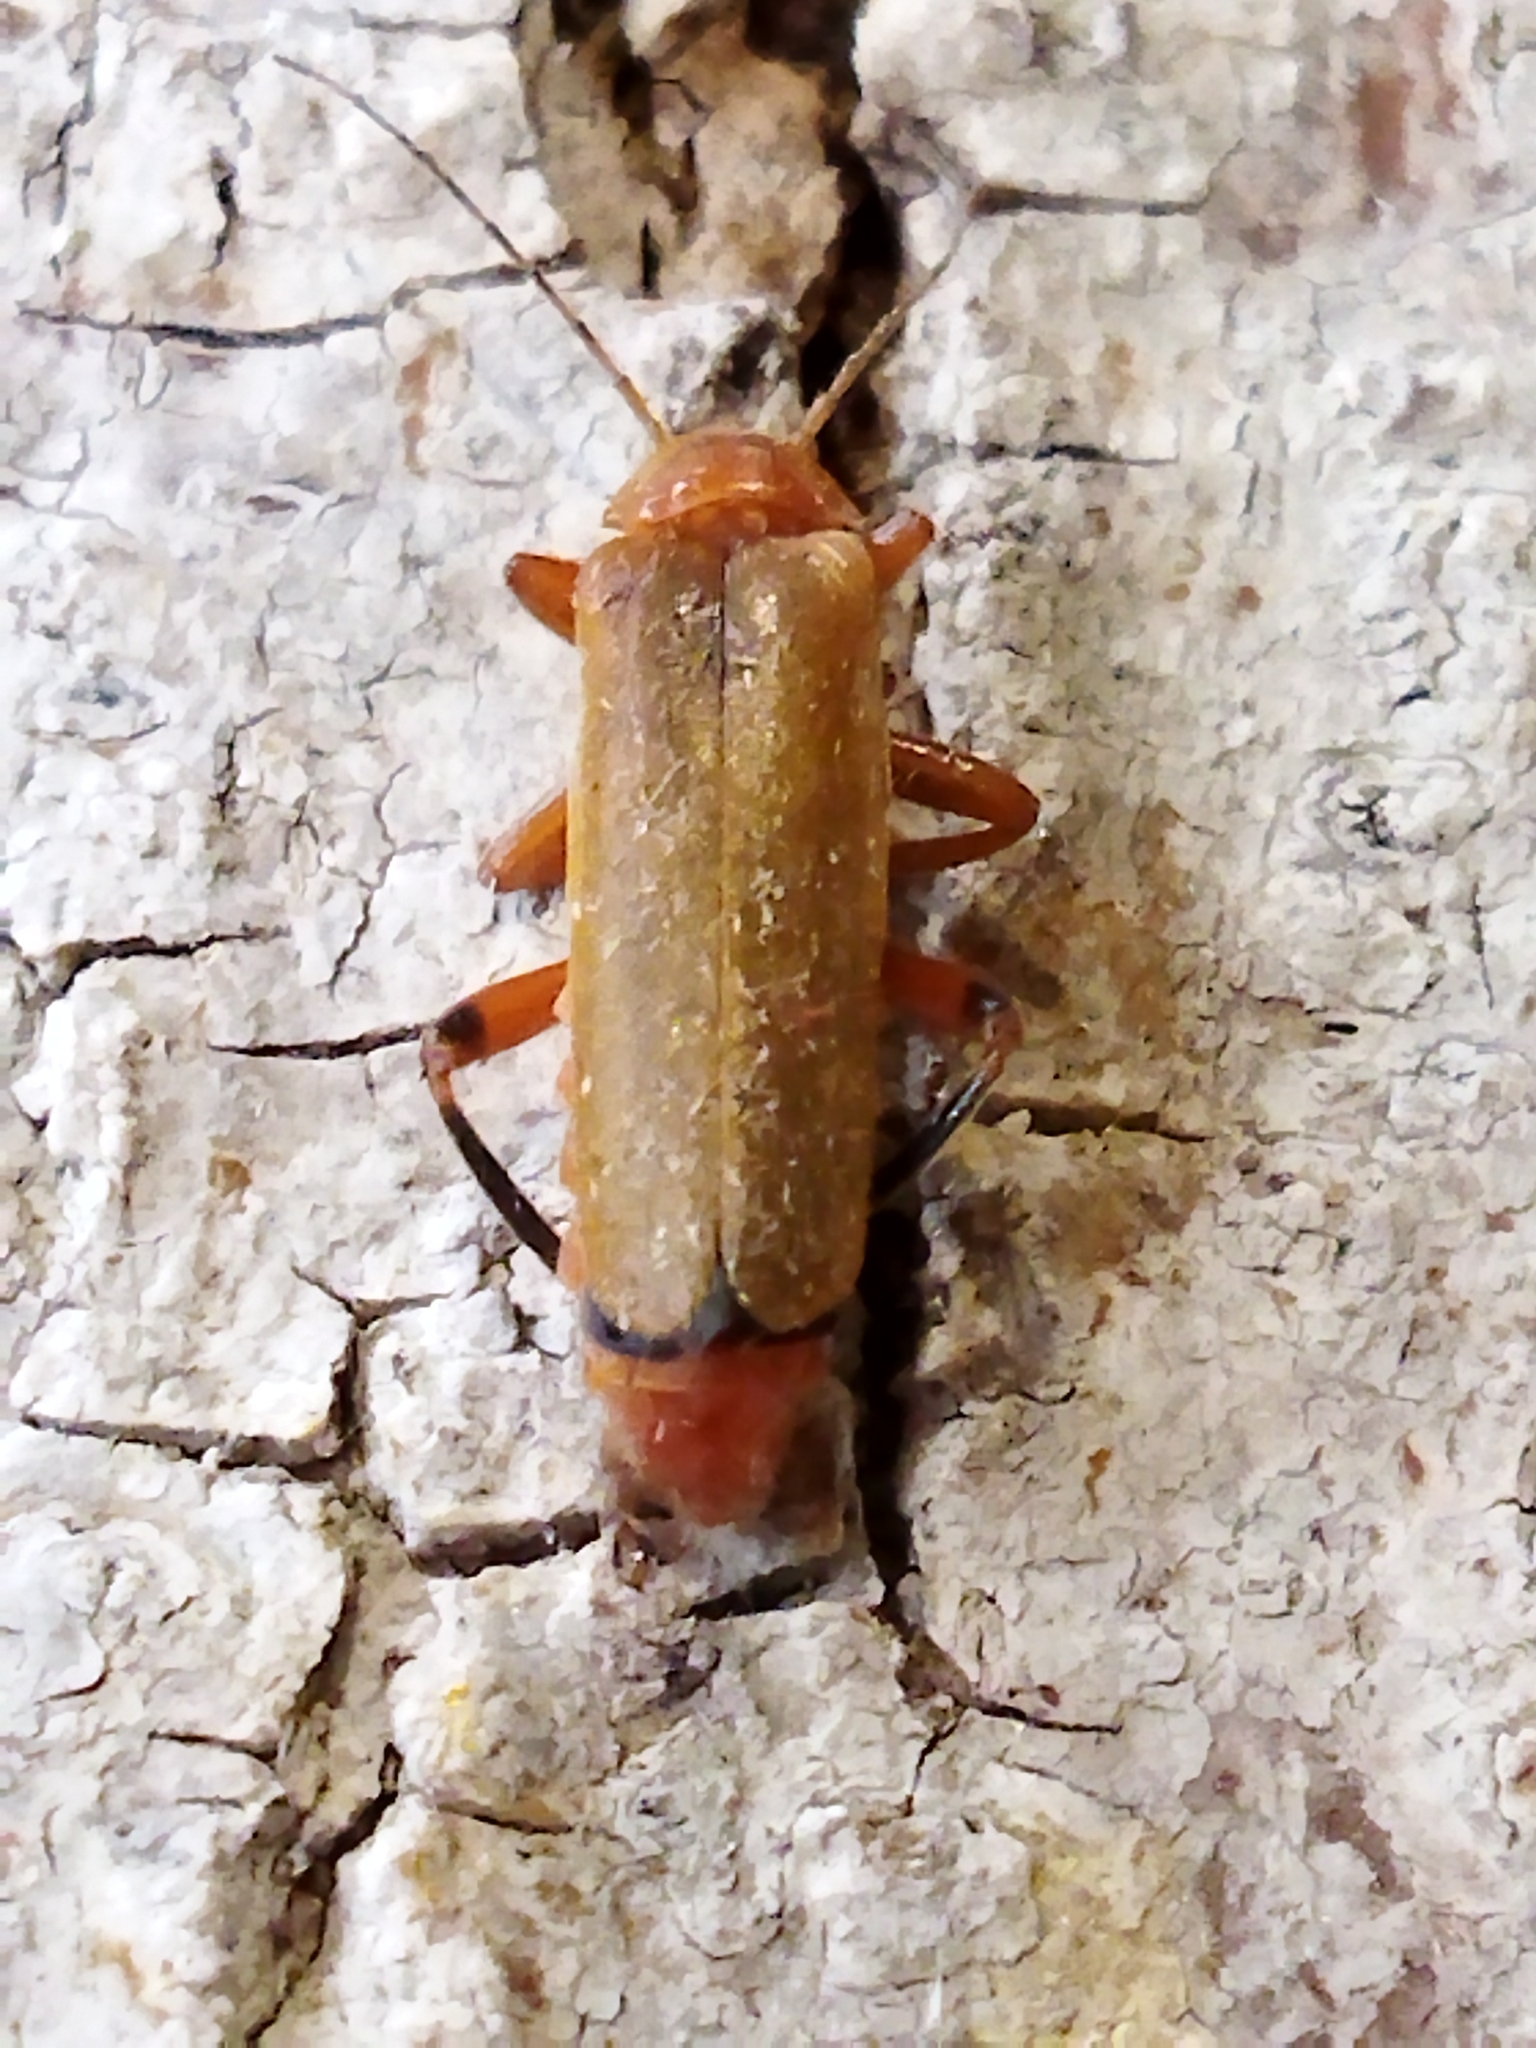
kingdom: Animalia
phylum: Arthropoda
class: Insecta
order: Coleoptera
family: Cantharidae
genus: Cantharis
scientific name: Cantharis livida
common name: Livid soldier beetle
